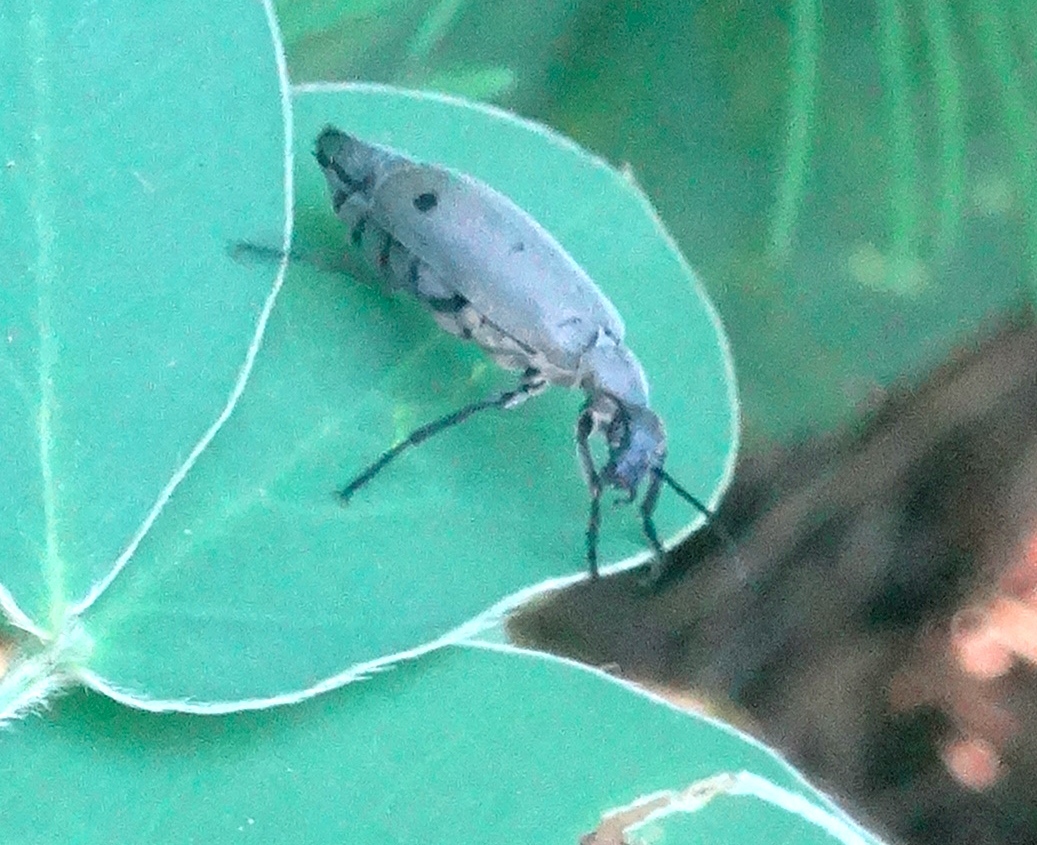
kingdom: Animalia
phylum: Arthropoda
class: Insecta
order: Coleoptera
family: Meloidae
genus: Epicauta
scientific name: Epicauta bipunctata
